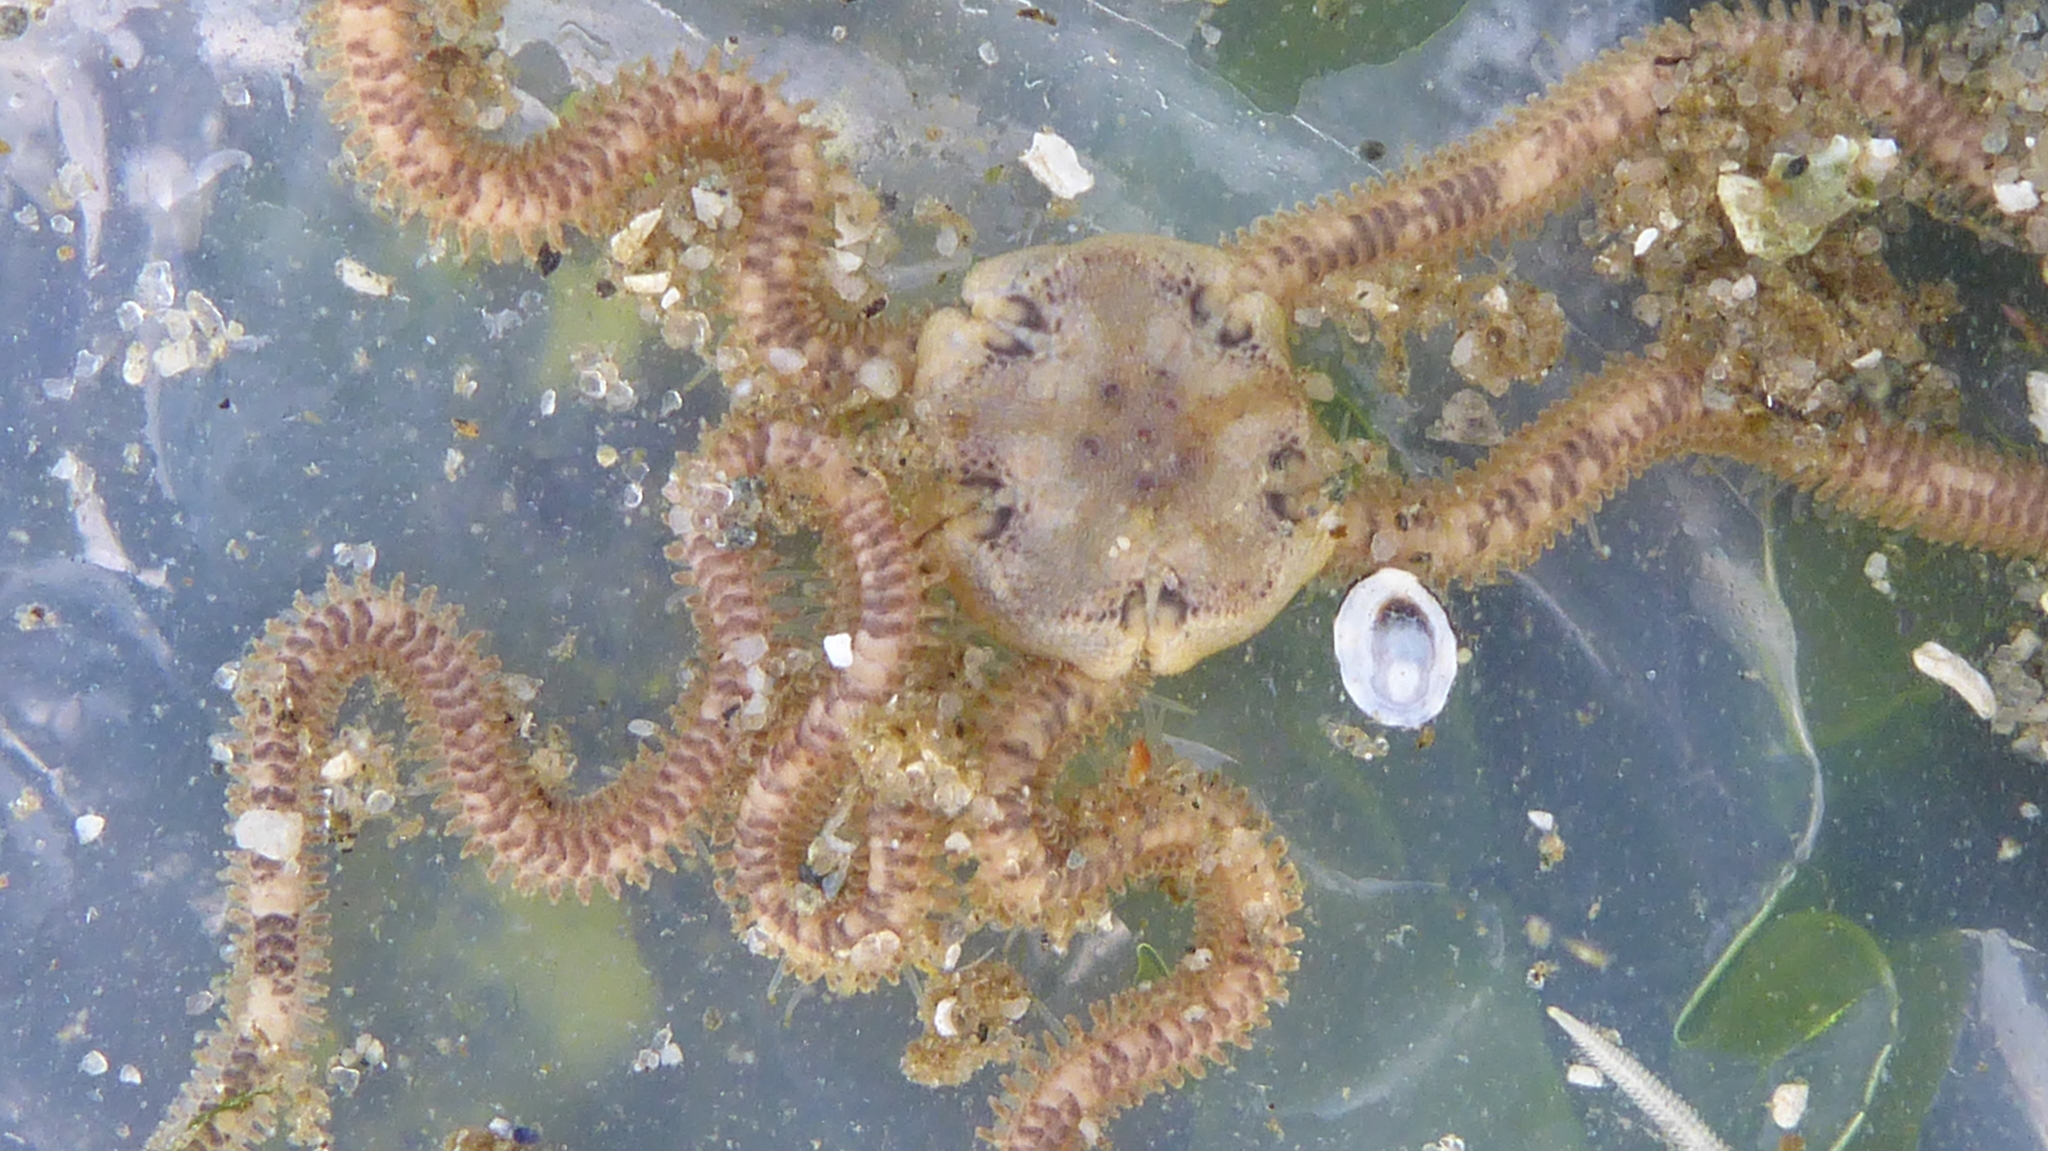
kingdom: Animalia
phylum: Echinodermata
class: Ophiuroidea
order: Amphilepidida
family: Amphiuridae
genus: Amphiodia
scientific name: Amphiodia occidentalis
